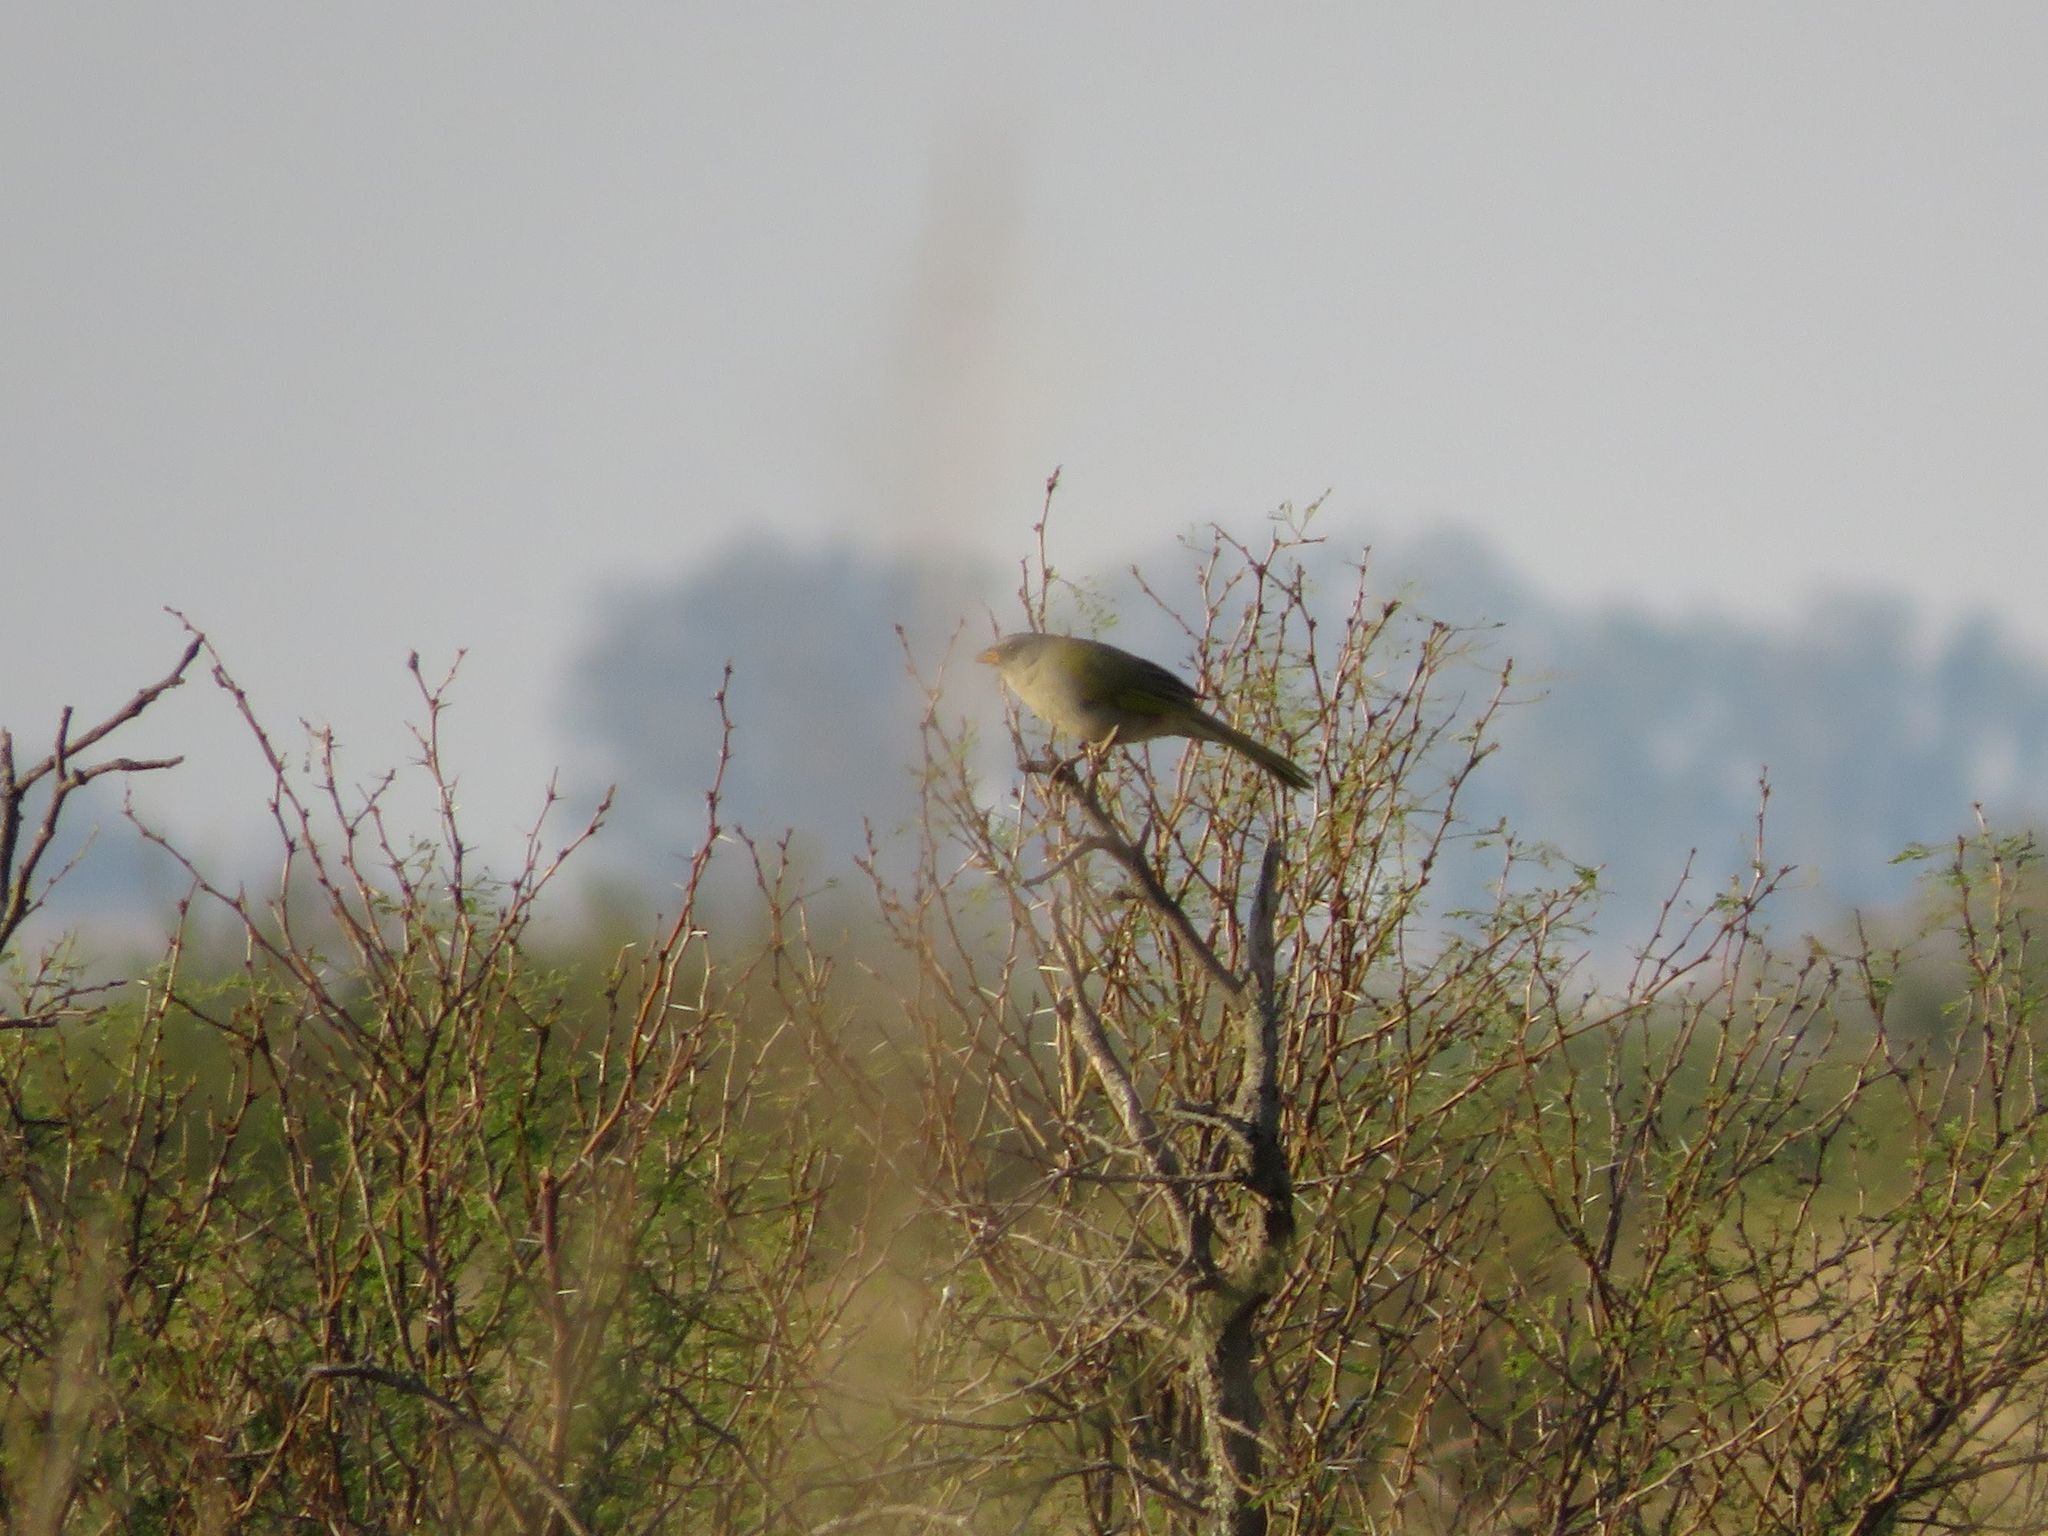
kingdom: Animalia
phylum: Chordata
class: Aves
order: Passeriformes
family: Thraupidae
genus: Embernagra
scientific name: Embernagra platensis
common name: Pampa finch
